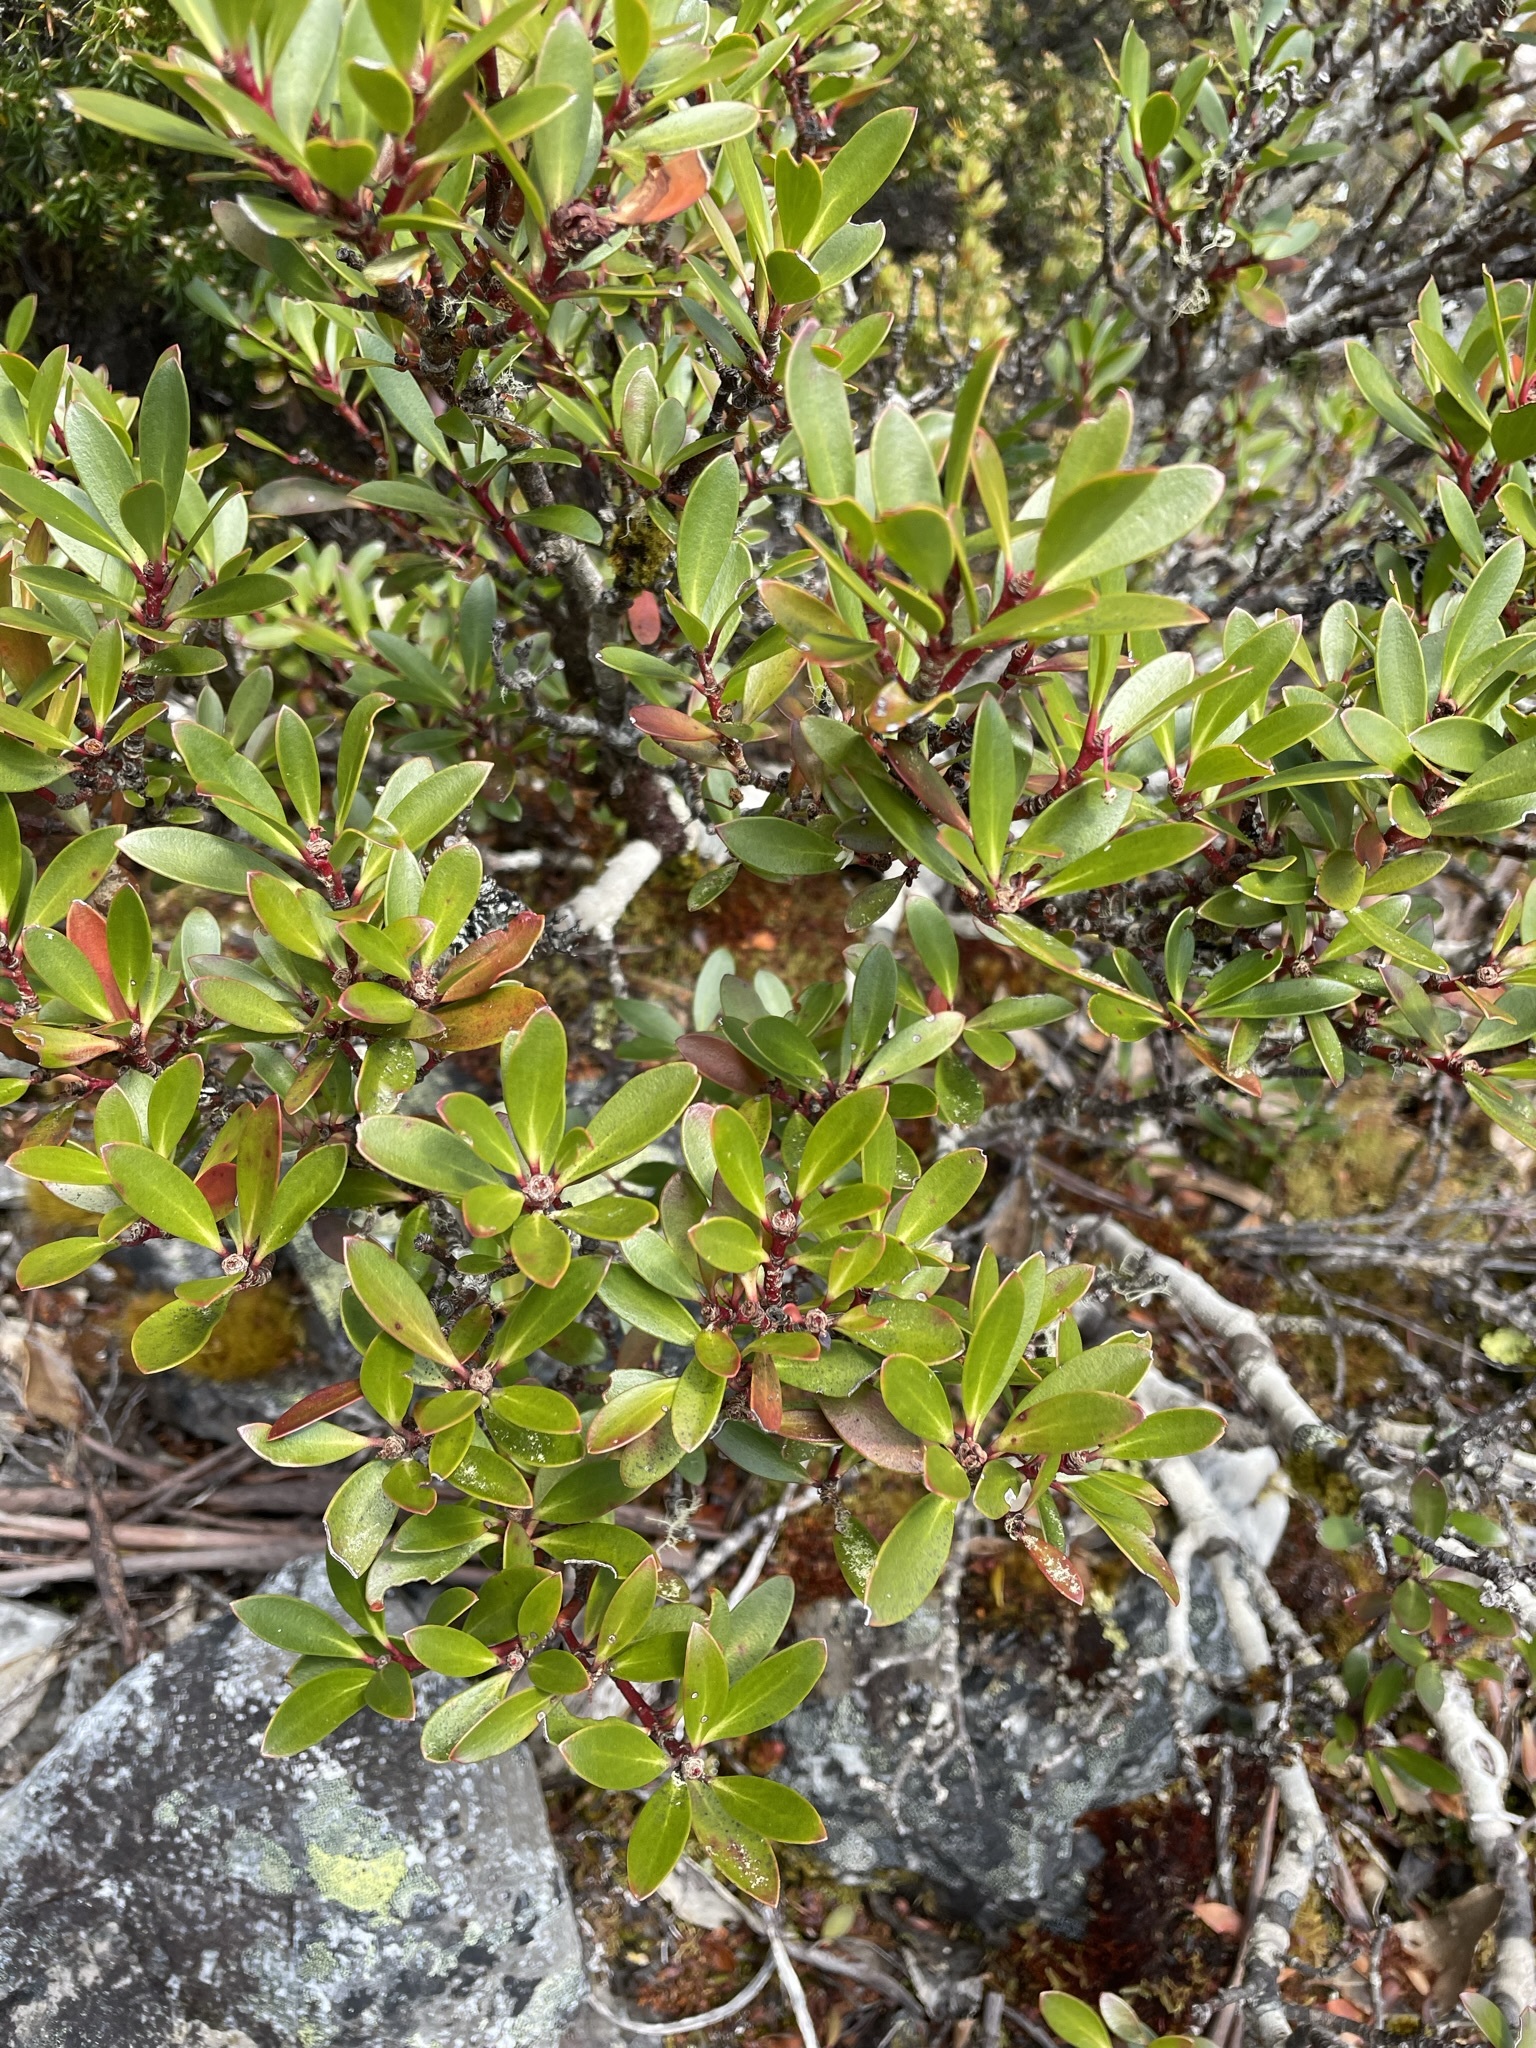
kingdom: Plantae
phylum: Tracheophyta
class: Magnoliopsida
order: Canellales
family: Winteraceae
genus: Drimys
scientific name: Drimys aromatica
